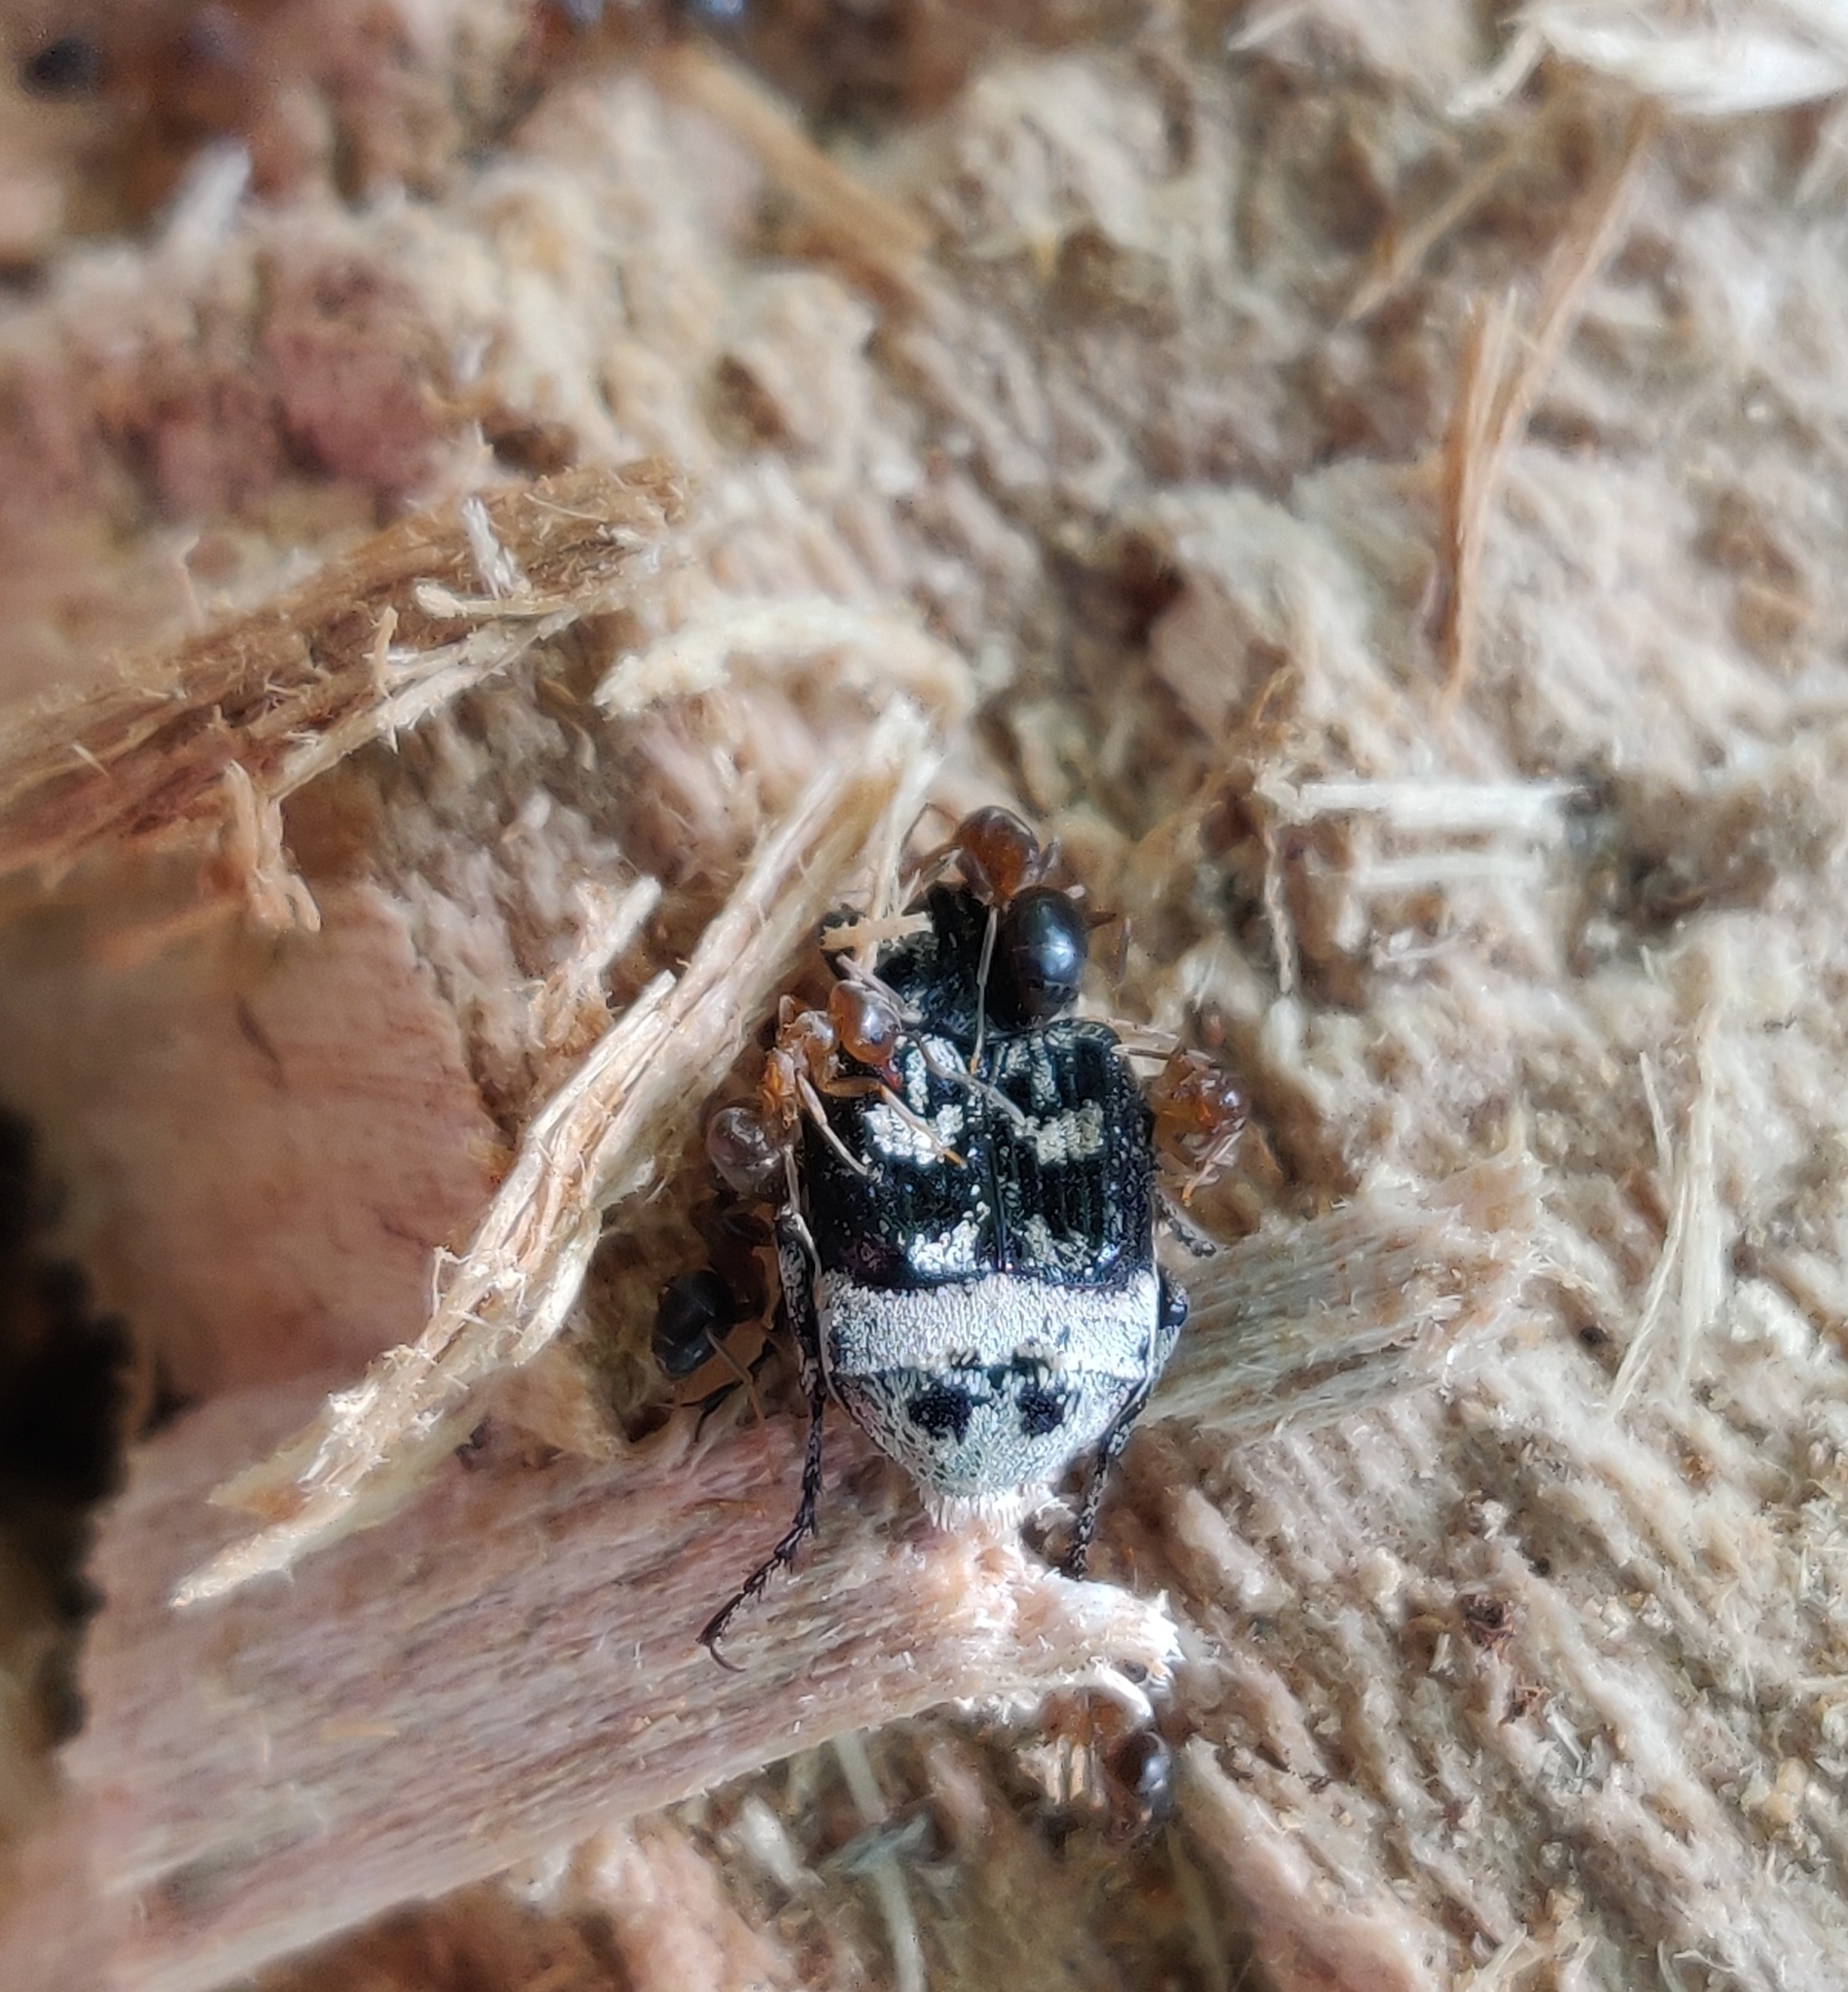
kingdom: Animalia
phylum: Arthropoda
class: Insecta
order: Coleoptera
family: Scarabaeidae
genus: Valgus
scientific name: Valgus hemipterus
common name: Bug flower chafer
